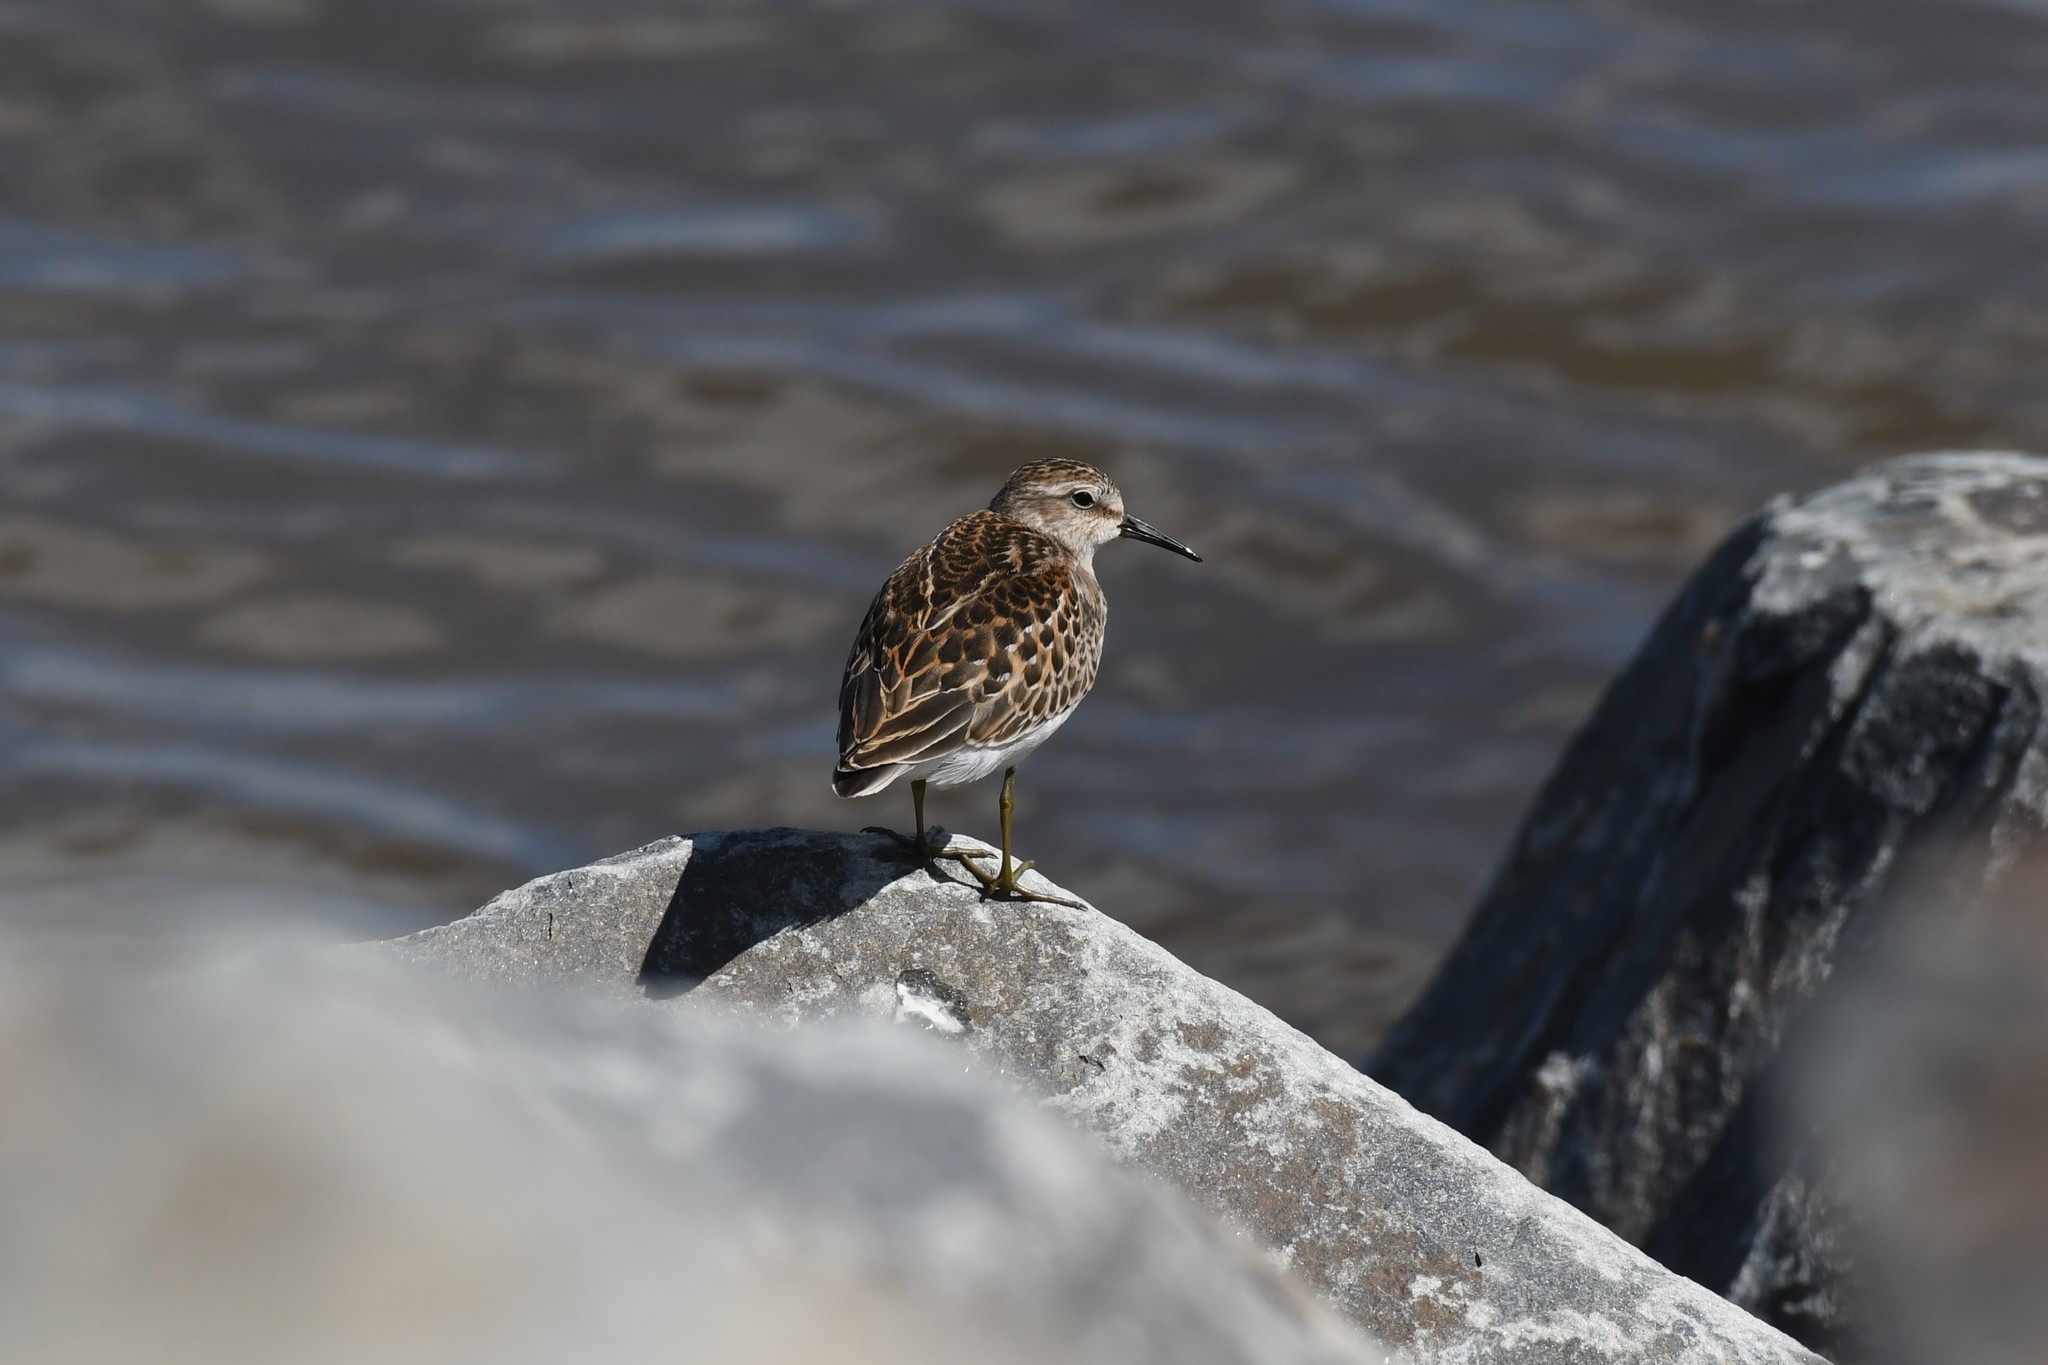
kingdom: Animalia
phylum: Chordata
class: Aves
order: Charadriiformes
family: Scolopacidae
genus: Calidris
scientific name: Calidris minutilla
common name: Least sandpiper
